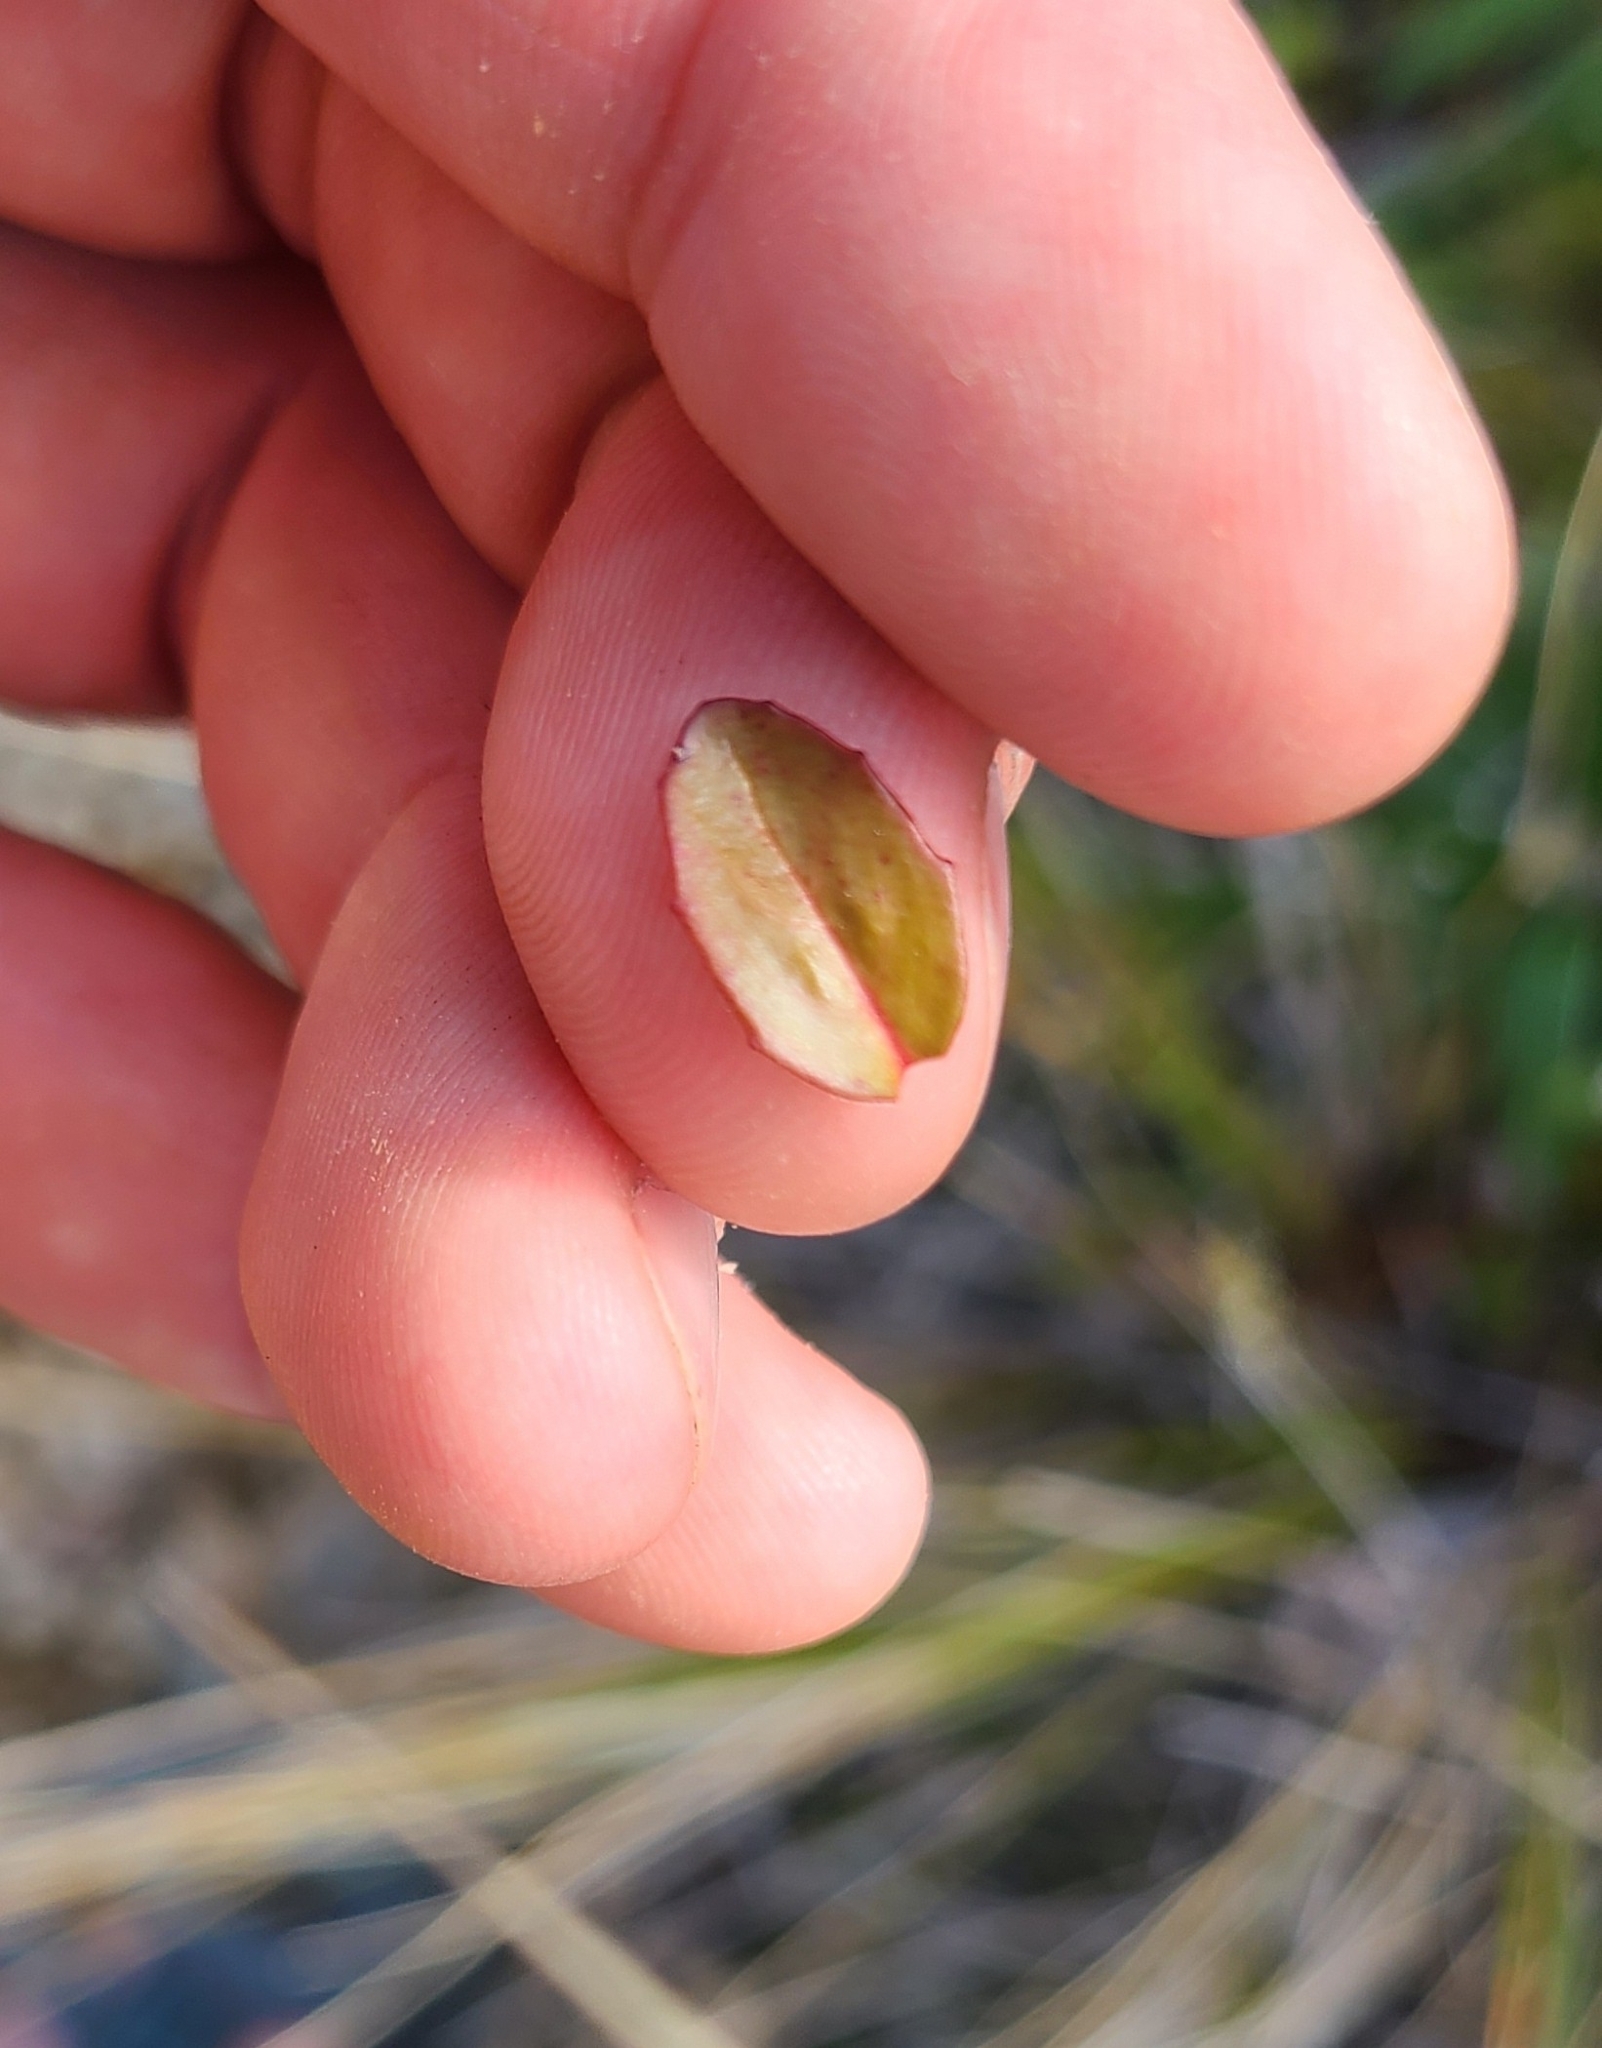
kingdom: Plantae
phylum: Tracheophyta
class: Magnoliopsida
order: Myrtales
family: Onagraceae
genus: Epilobium
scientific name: Epilobium alsinoides
